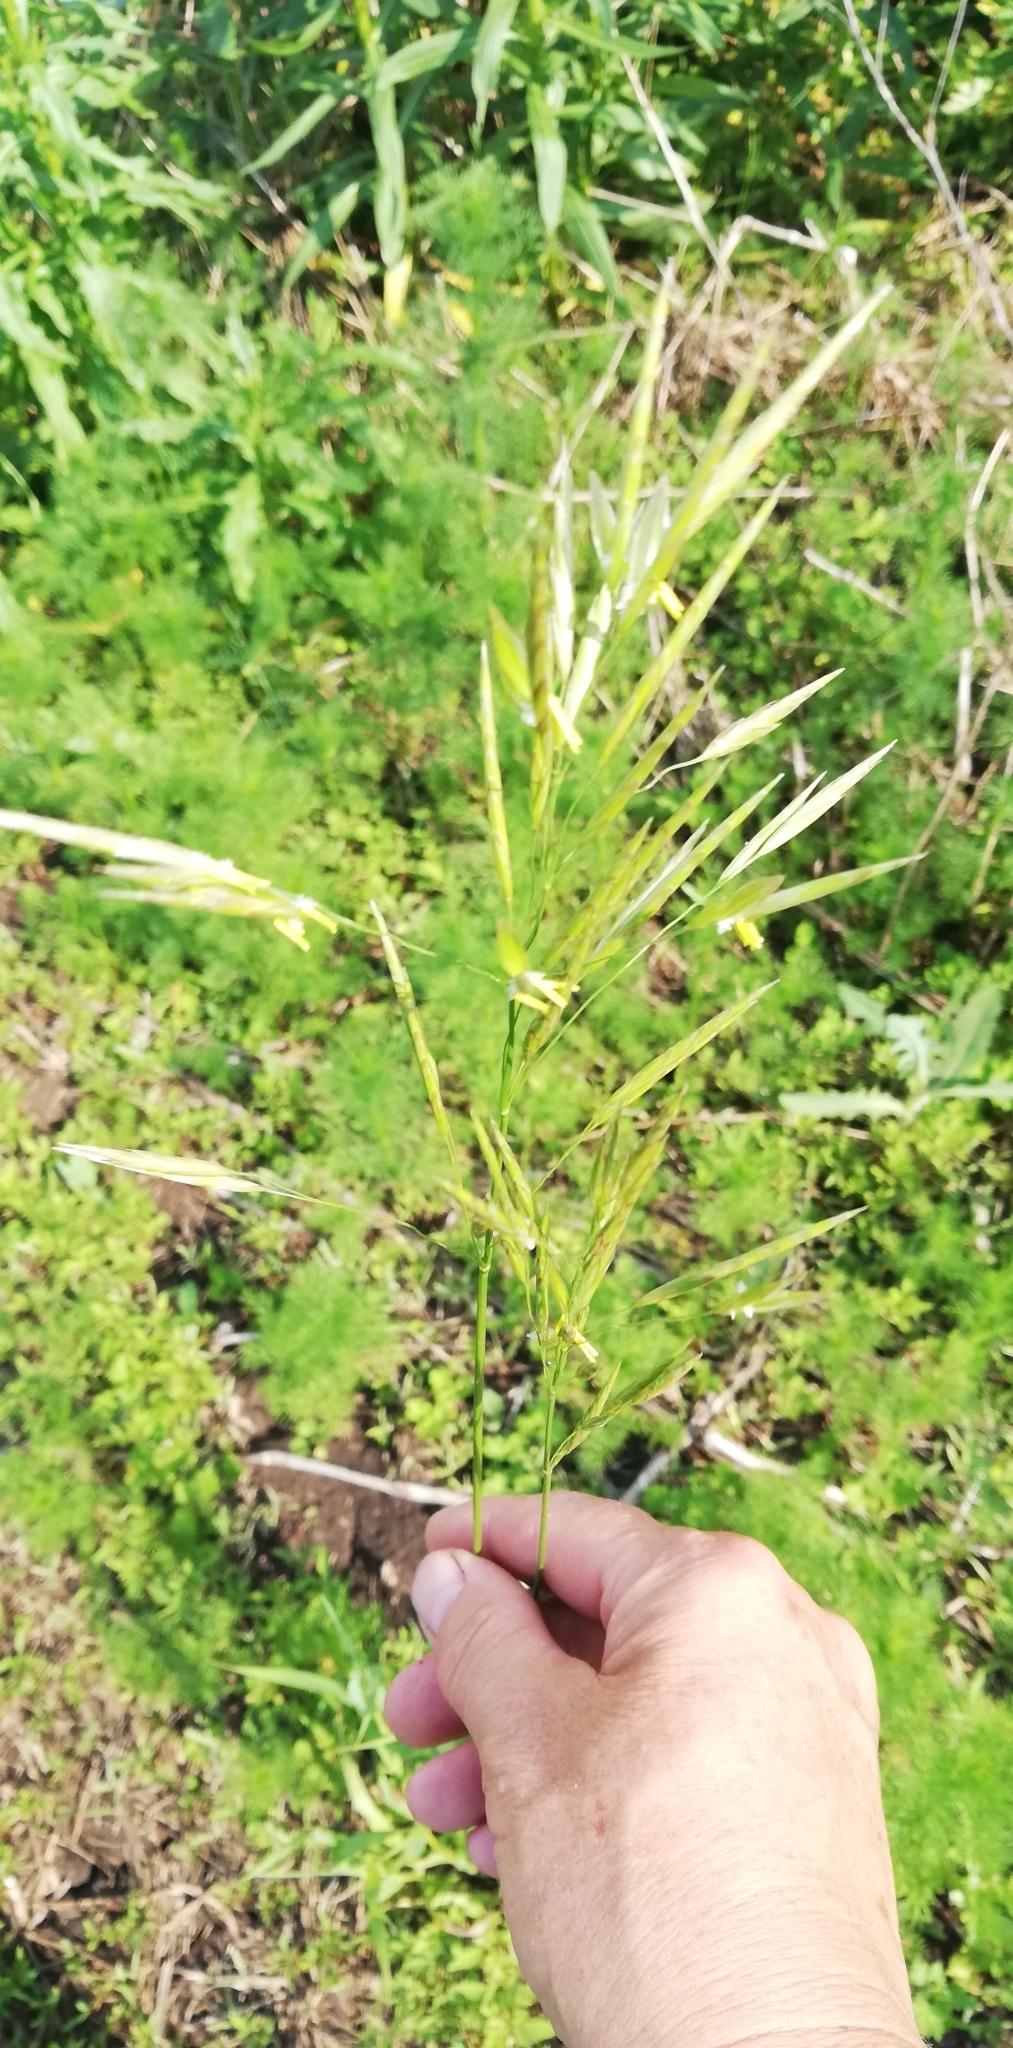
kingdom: Plantae
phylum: Tracheophyta
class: Liliopsida
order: Poales
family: Poaceae
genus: Bromus
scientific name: Bromus inermis
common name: Smooth brome
